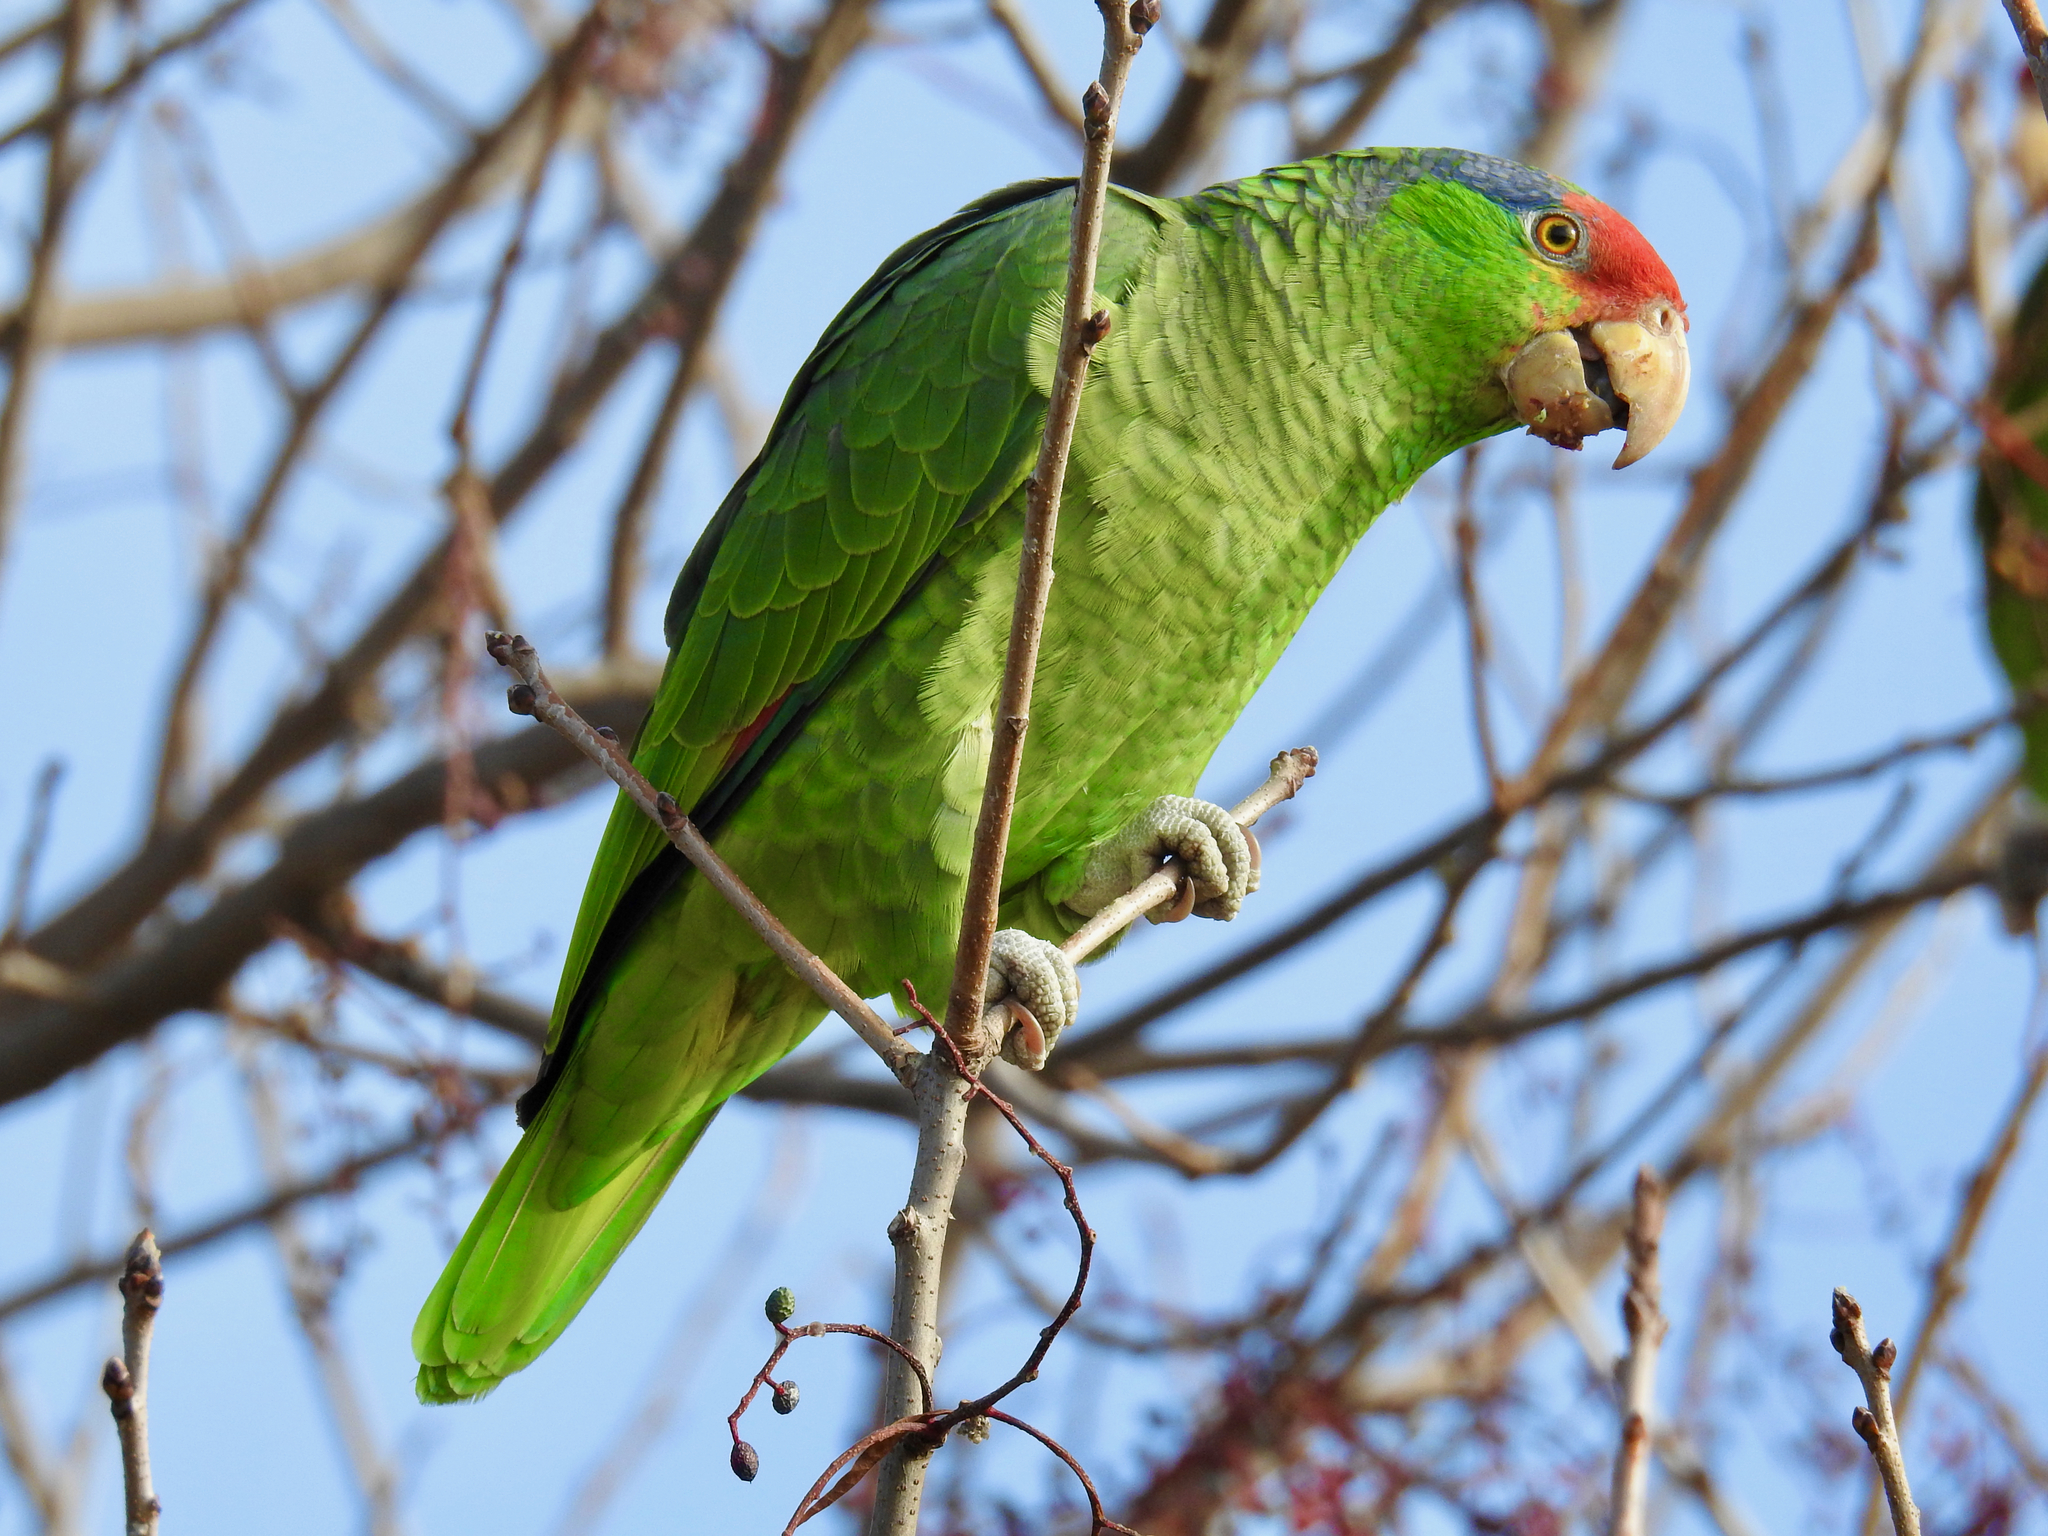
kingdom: Animalia
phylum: Chordata
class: Aves
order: Psittaciformes
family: Psittacidae
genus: Amazona
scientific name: Amazona viridigenalis
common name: Red-crowned amazon
